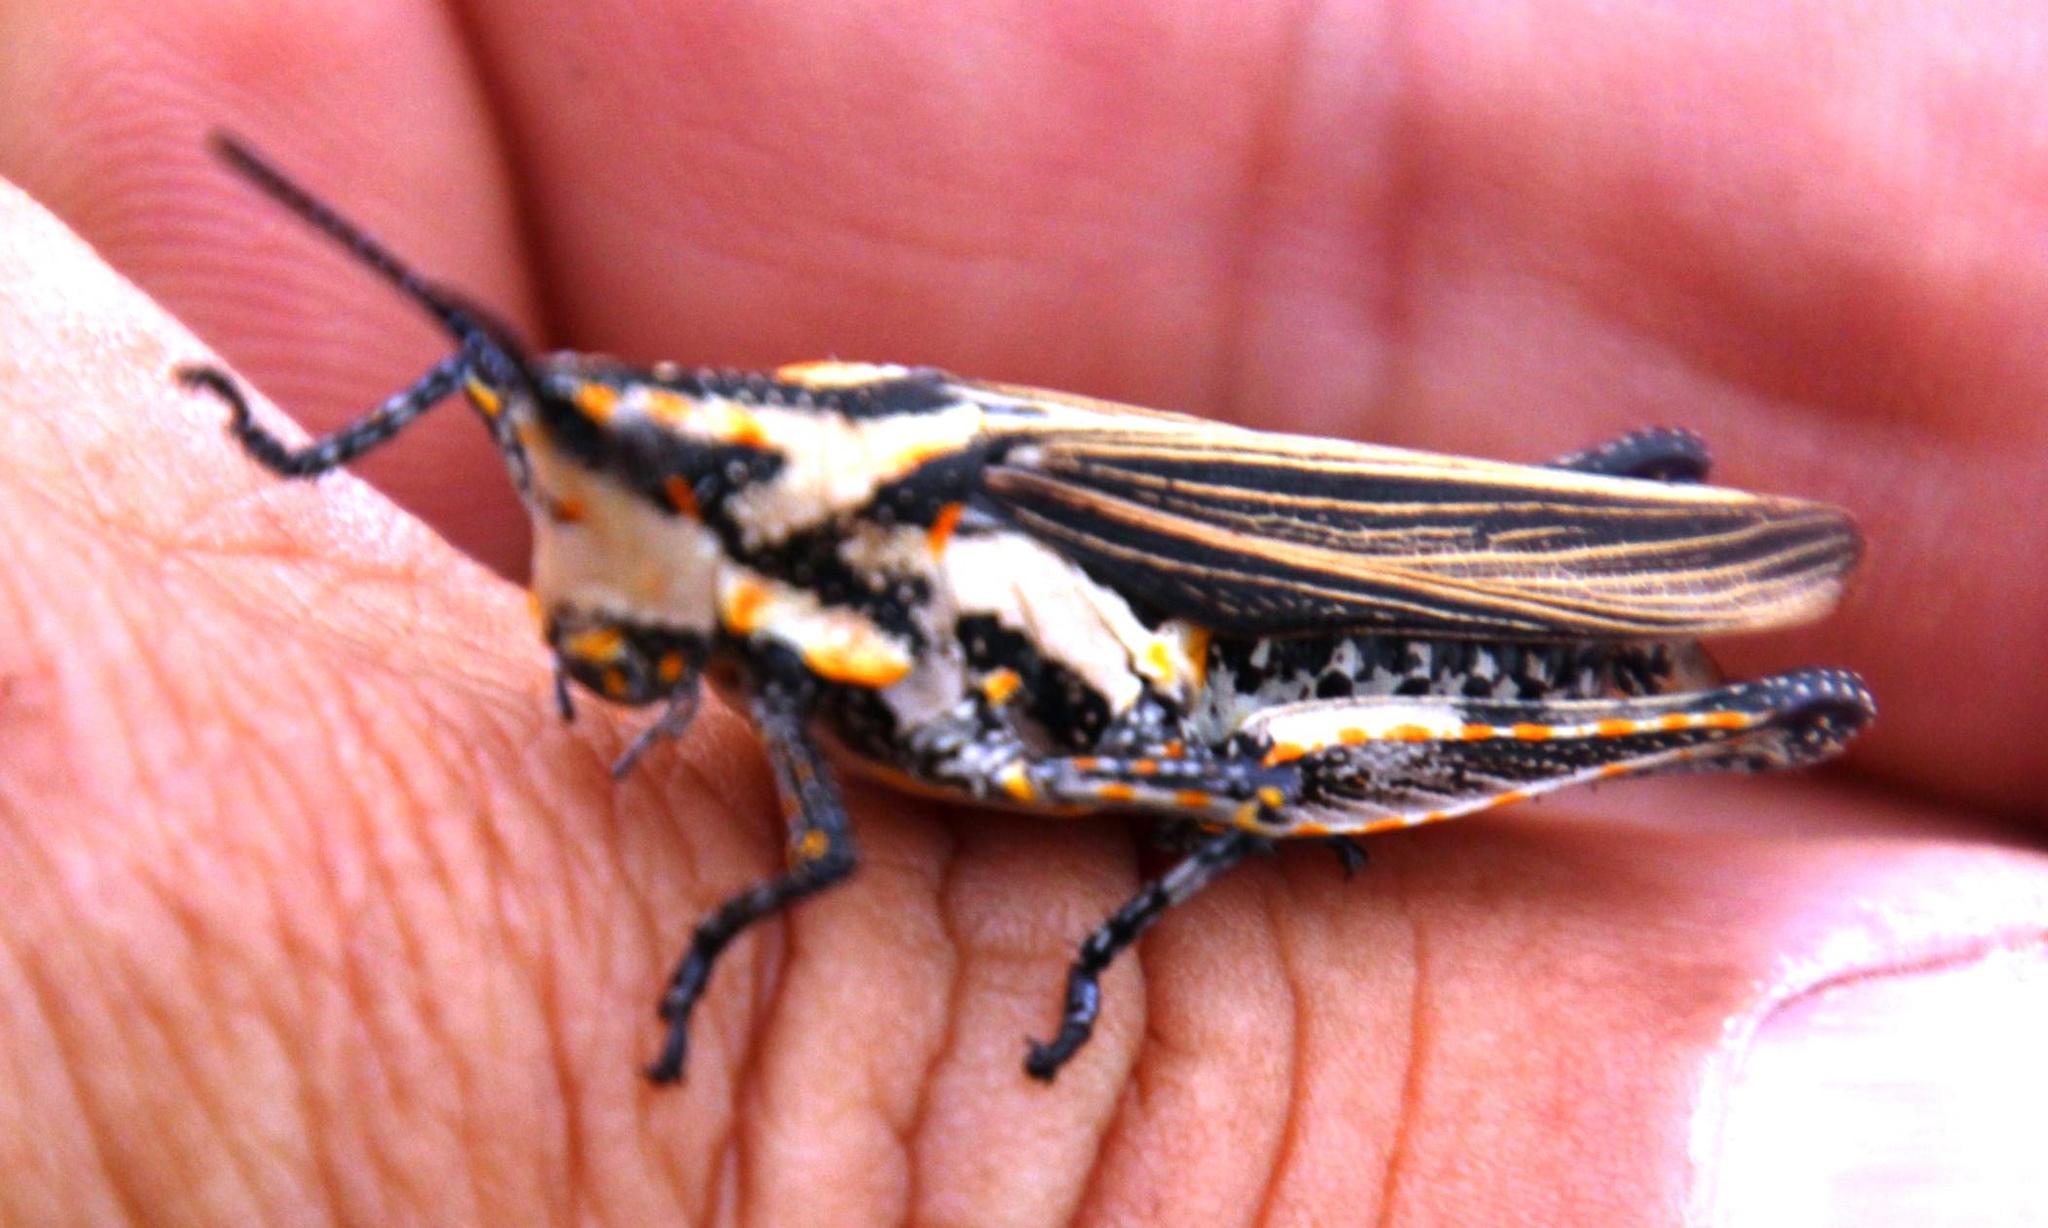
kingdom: Animalia
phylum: Arthropoda
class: Insecta
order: Orthoptera
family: Pyrgomorphidae
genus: Ochrophlebia
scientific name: Ochrophlebia cafra
